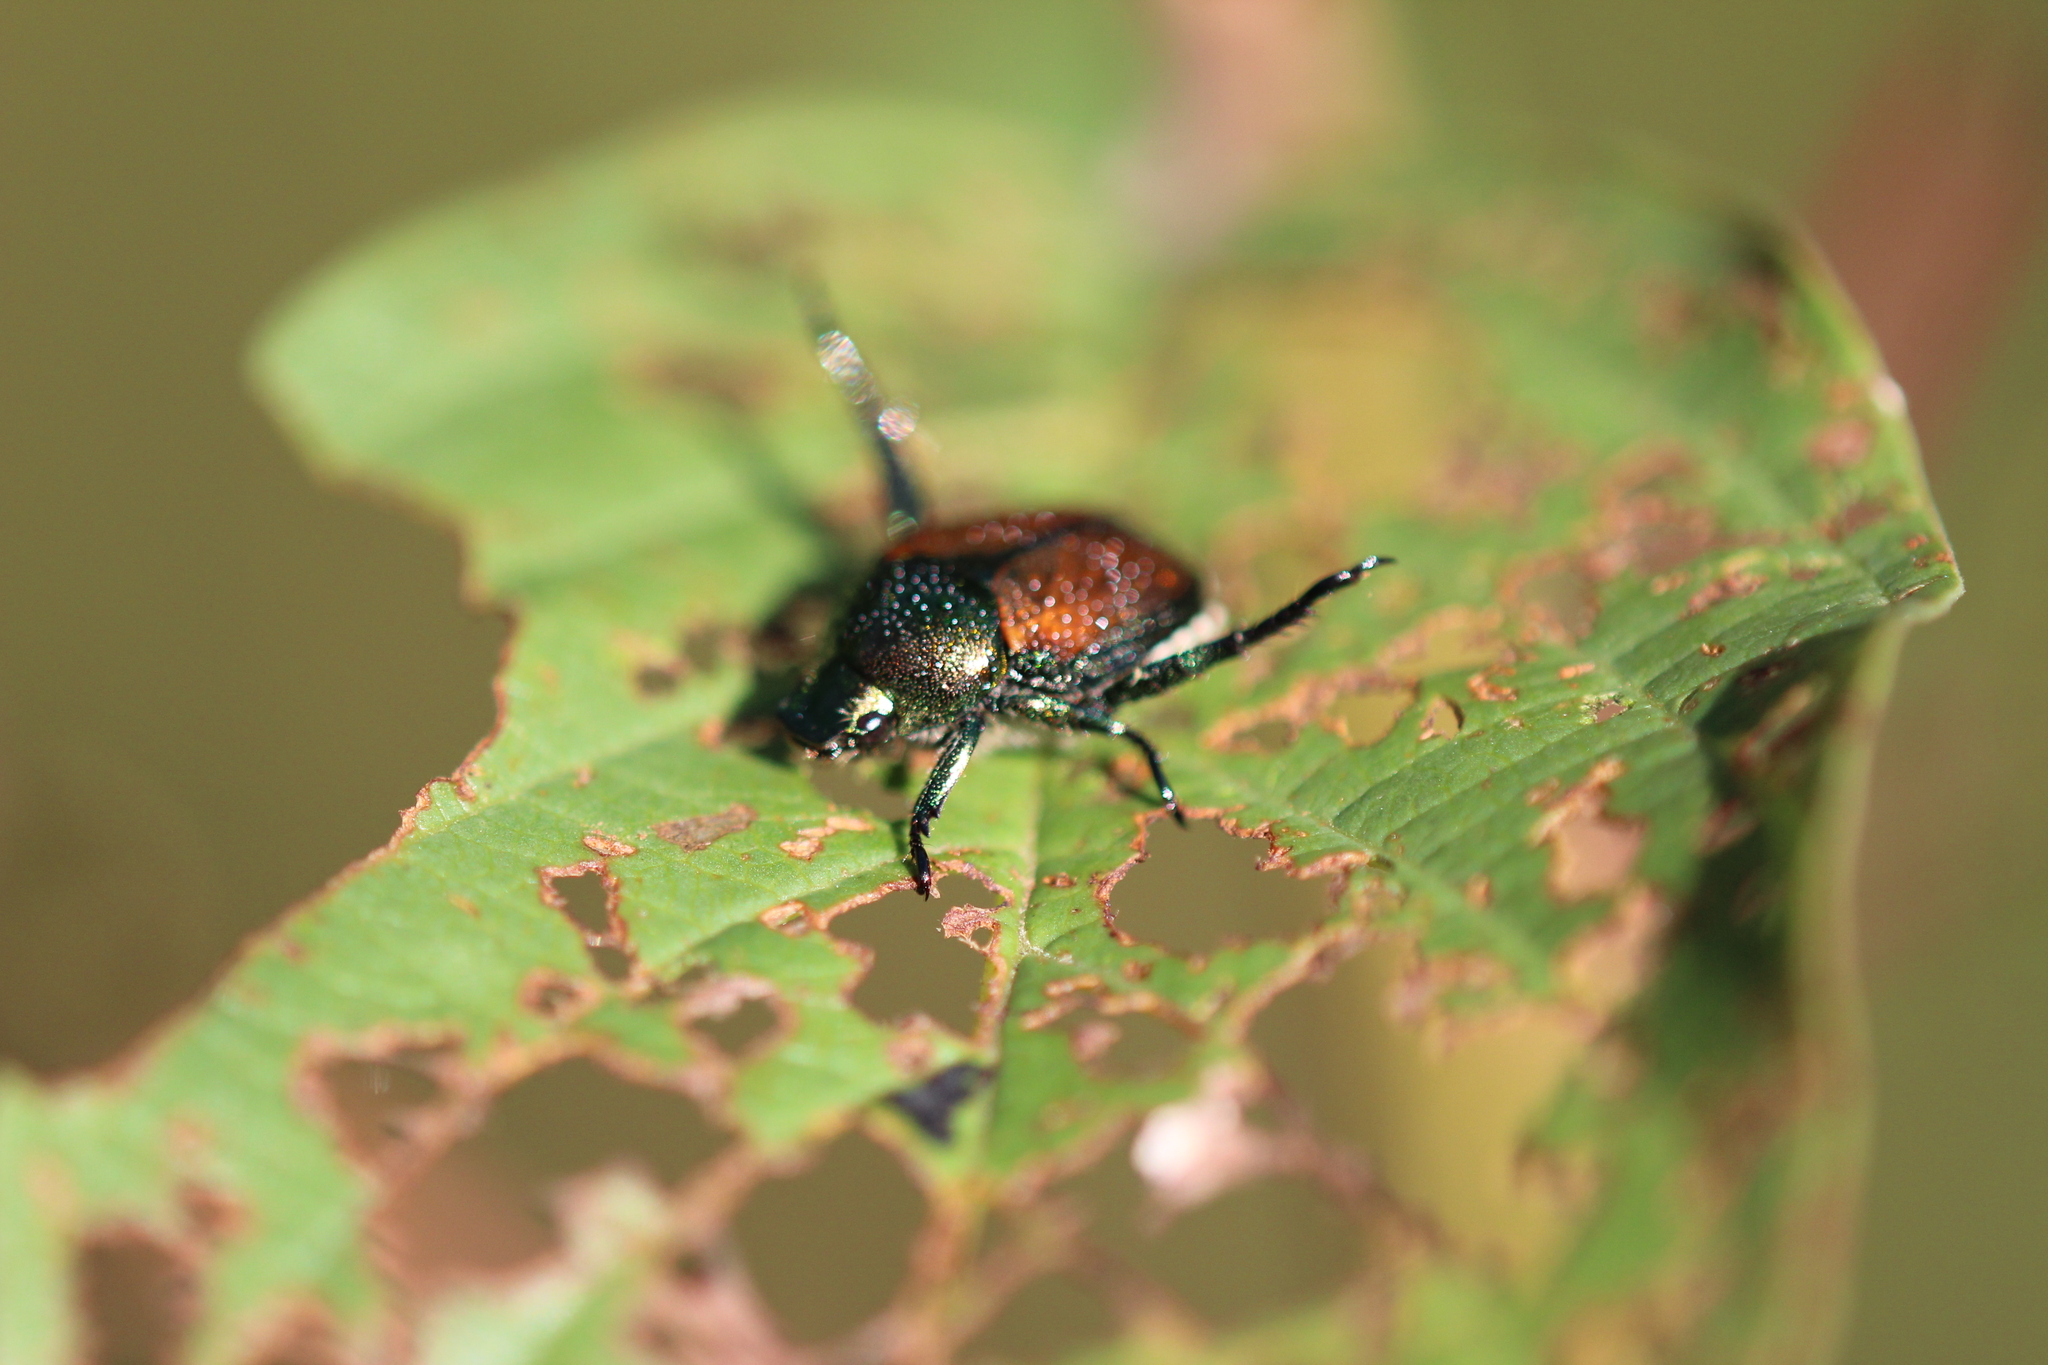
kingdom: Animalia
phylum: Arthropoda
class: Insecta
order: Coleoptera
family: Scarabaeidae
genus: Popillia
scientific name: Popillia japonica
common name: Japanese beetle
